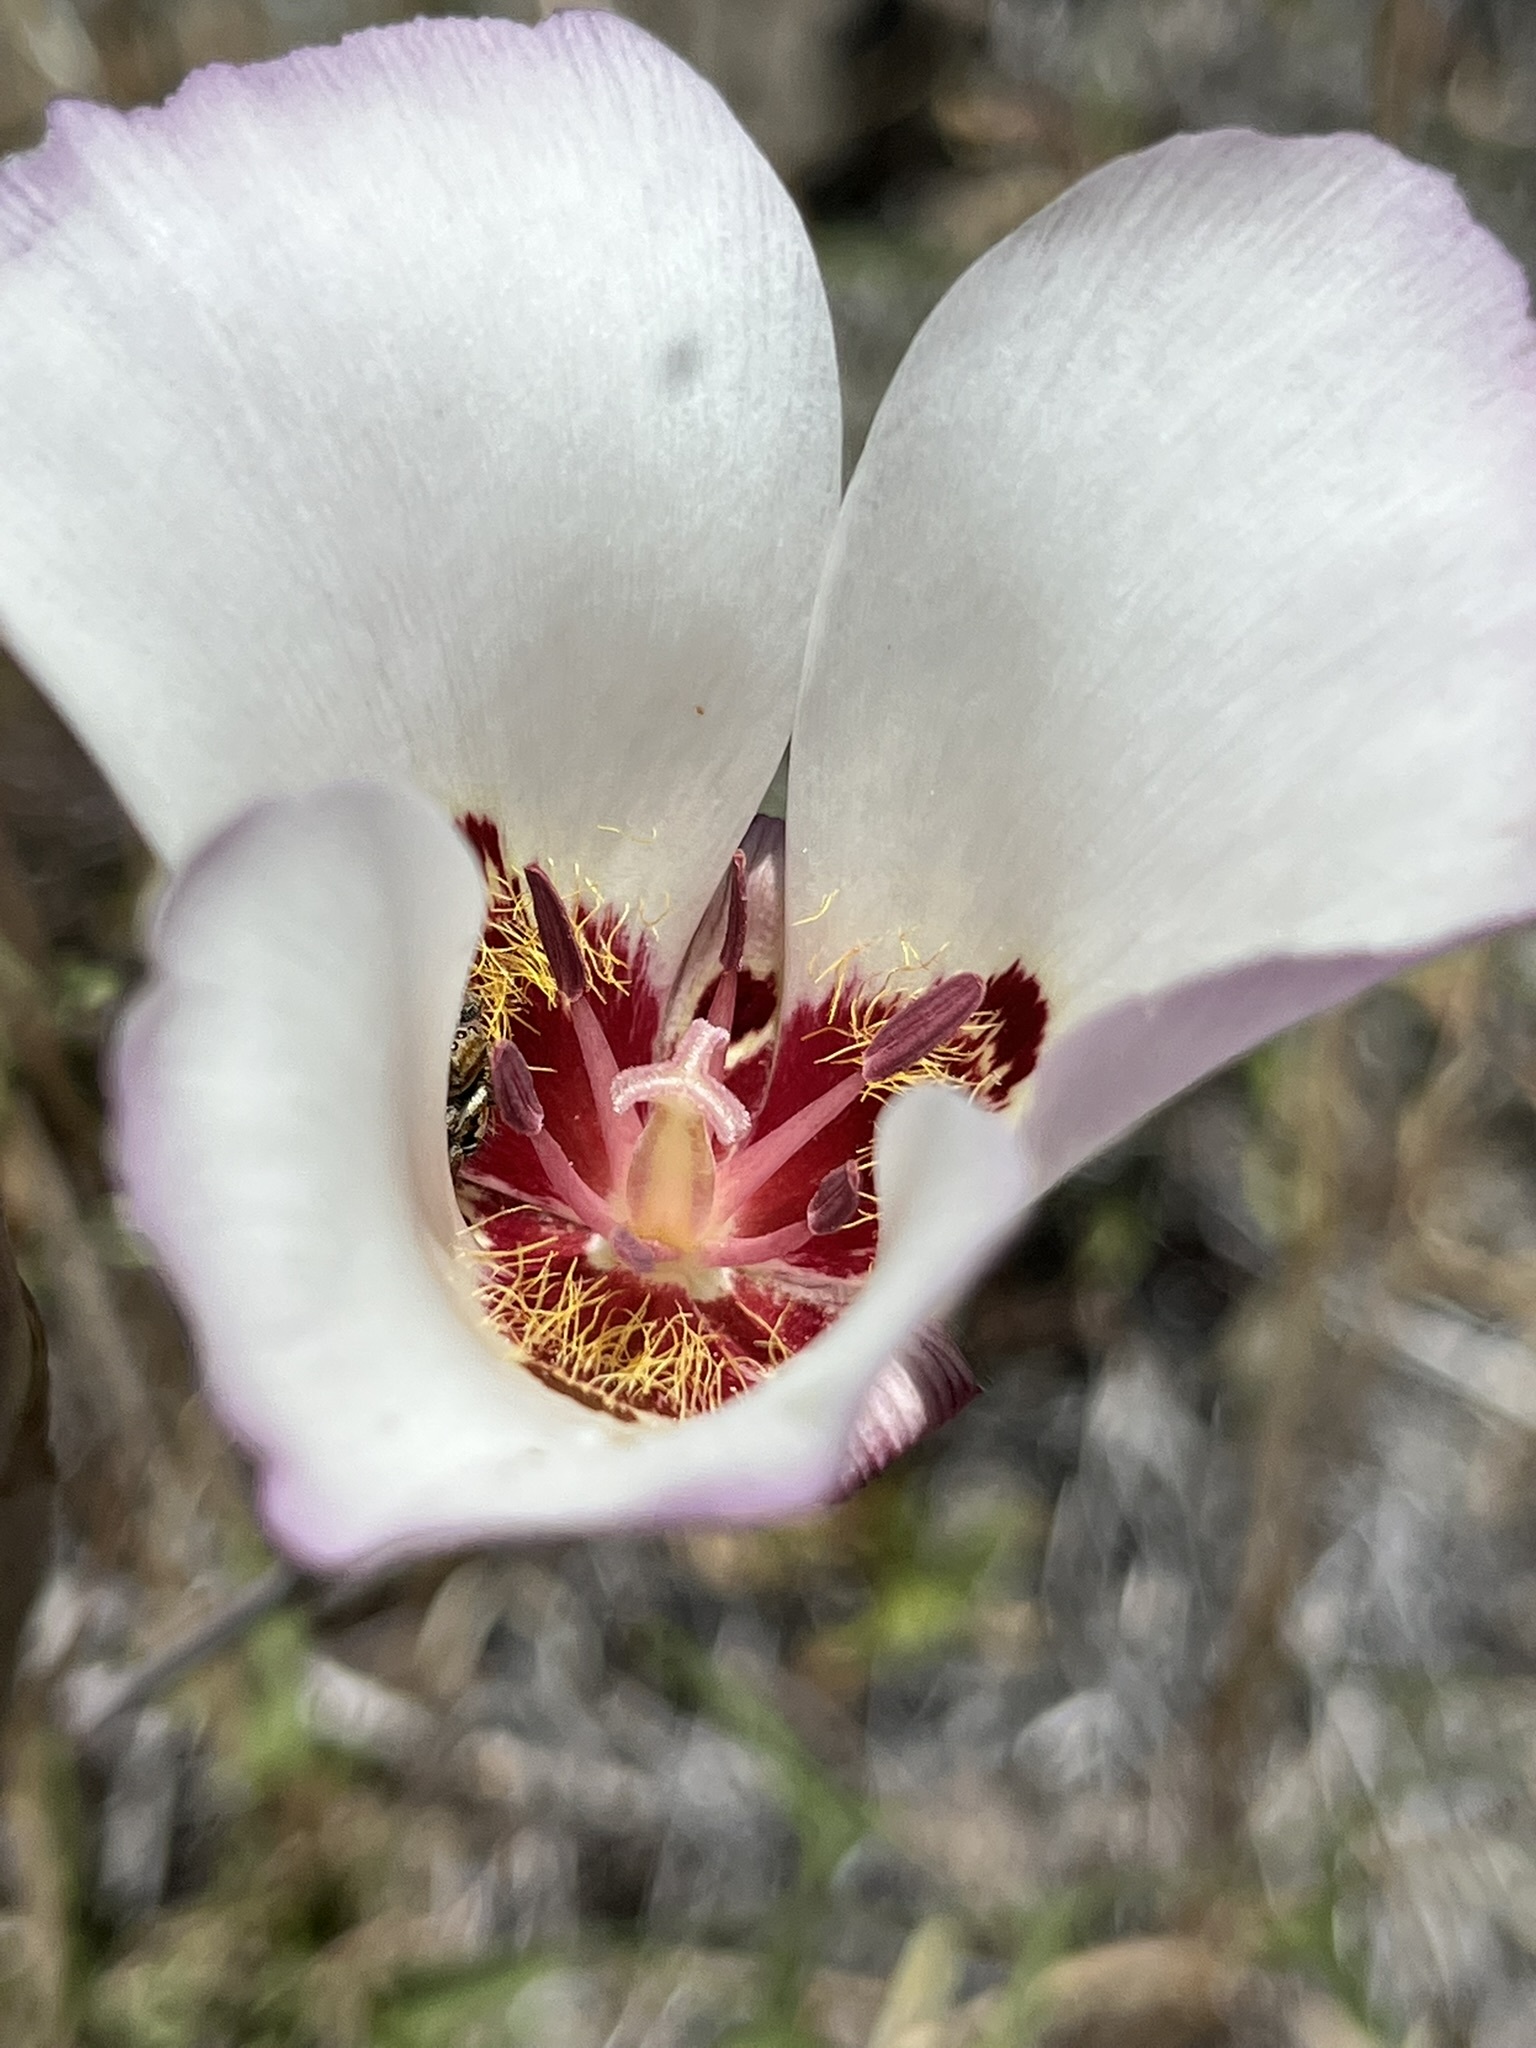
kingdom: Plantae
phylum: Tracheophyta
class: Liliopsida
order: Liliales
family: Liliaceae
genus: Calochortus
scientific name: Calochortus simulans
